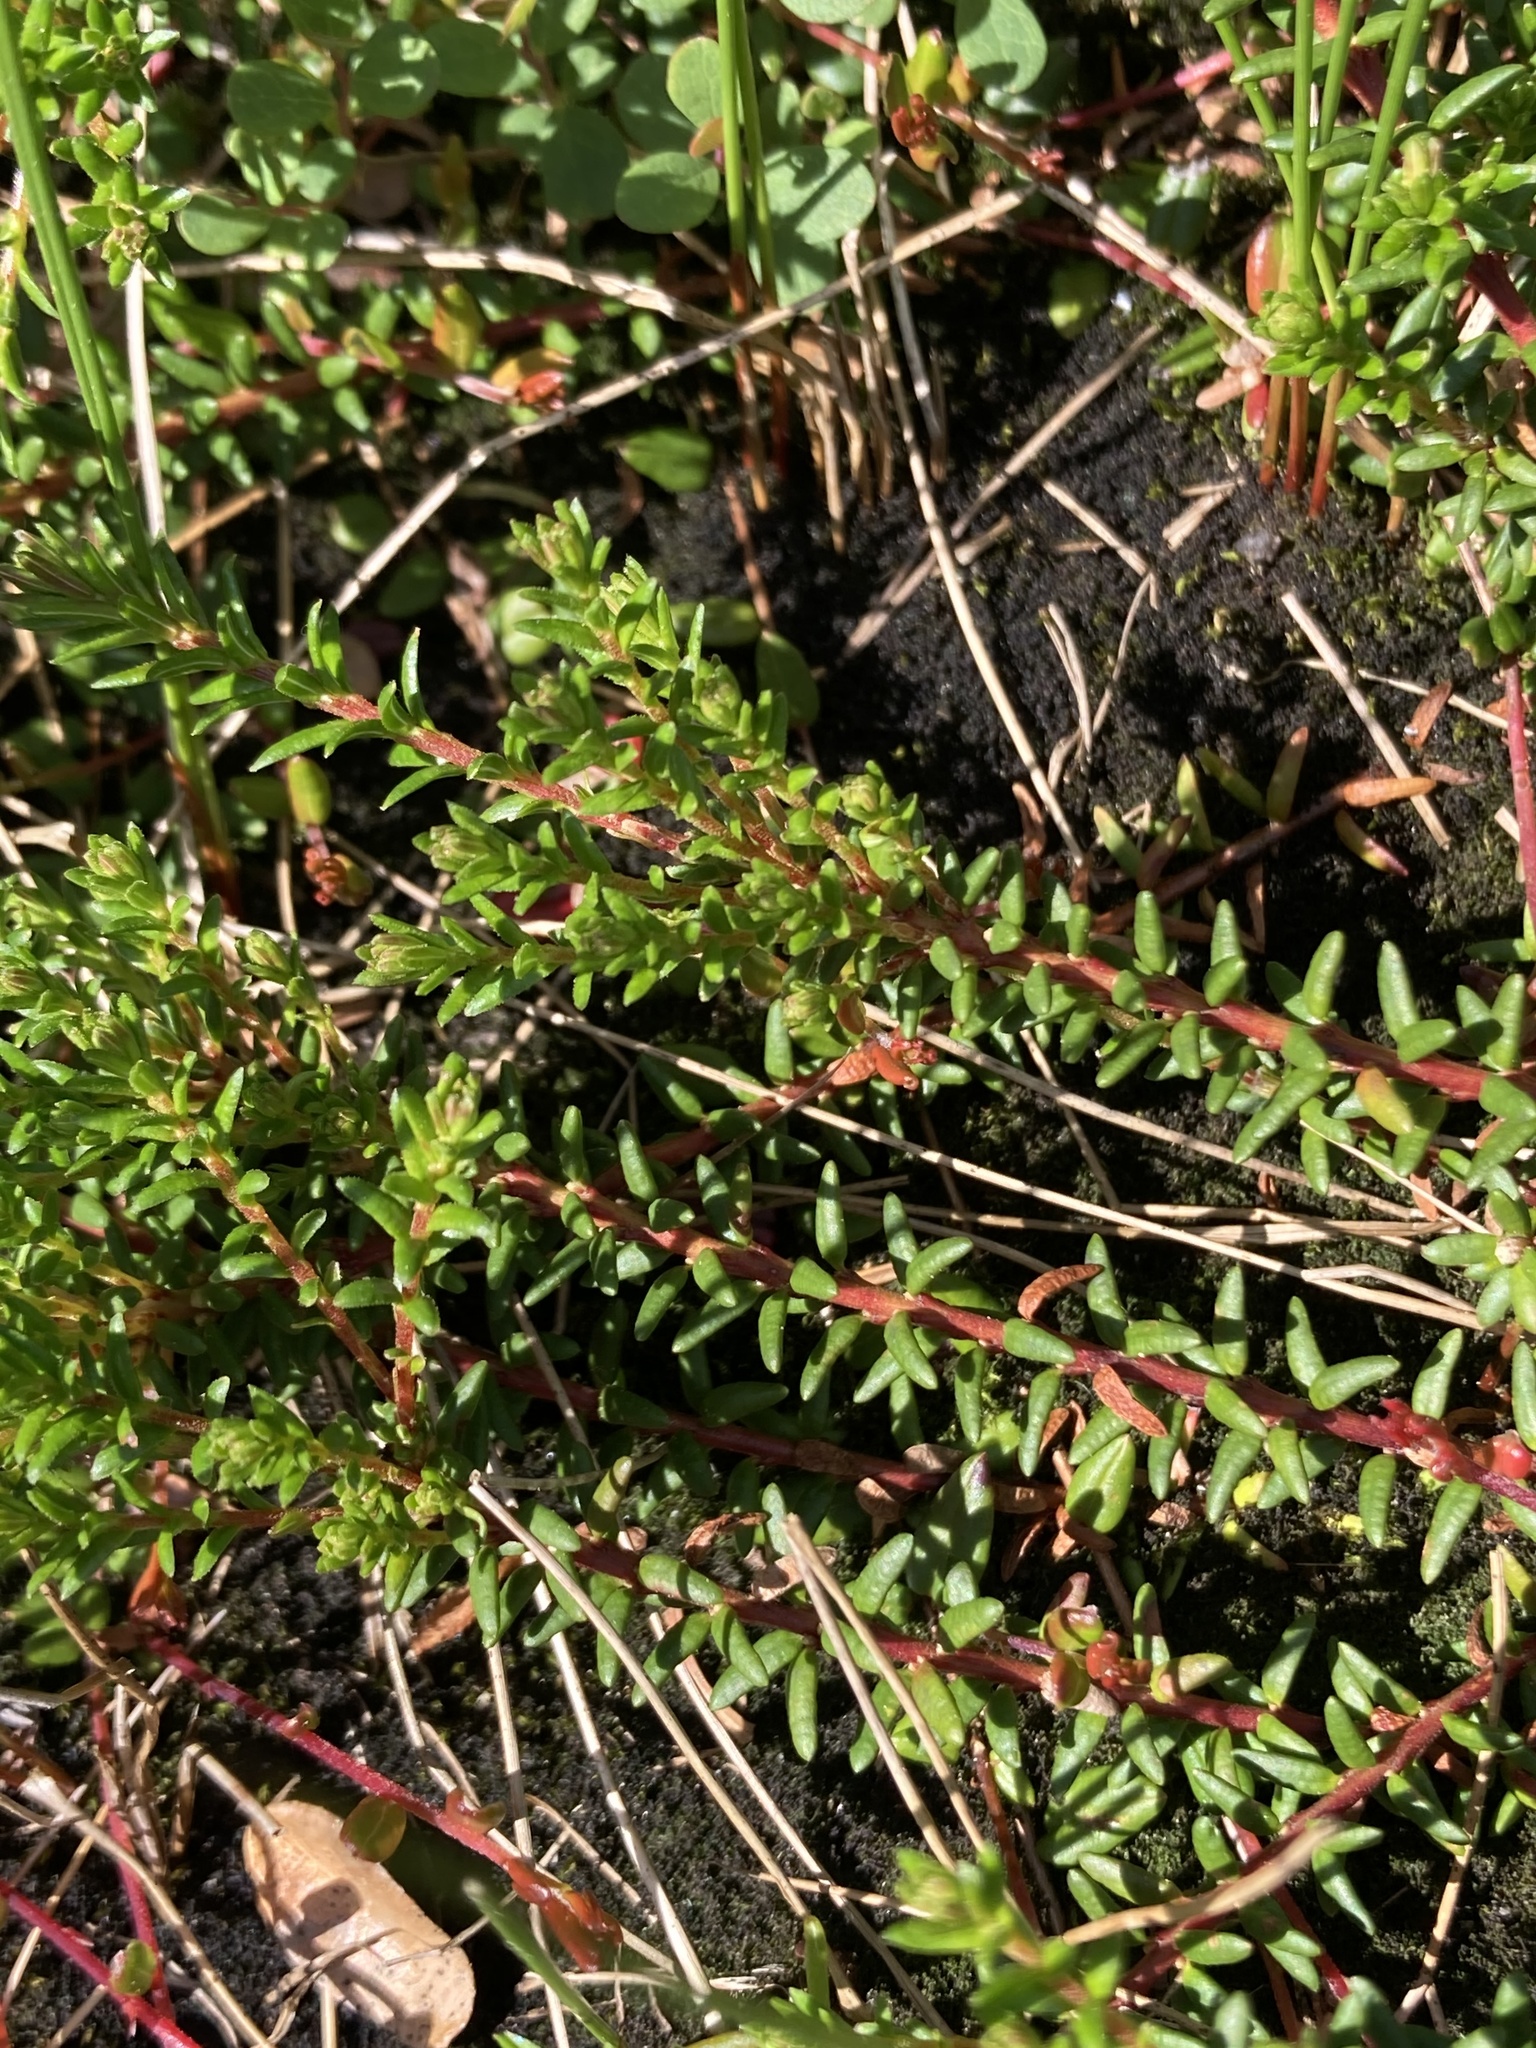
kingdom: Plantae
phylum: Tracheophyta
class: Magnoliopsida
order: Ericales
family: Ericaceae
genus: Empetrum
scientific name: Empetrum nigrum
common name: Black crowberry
